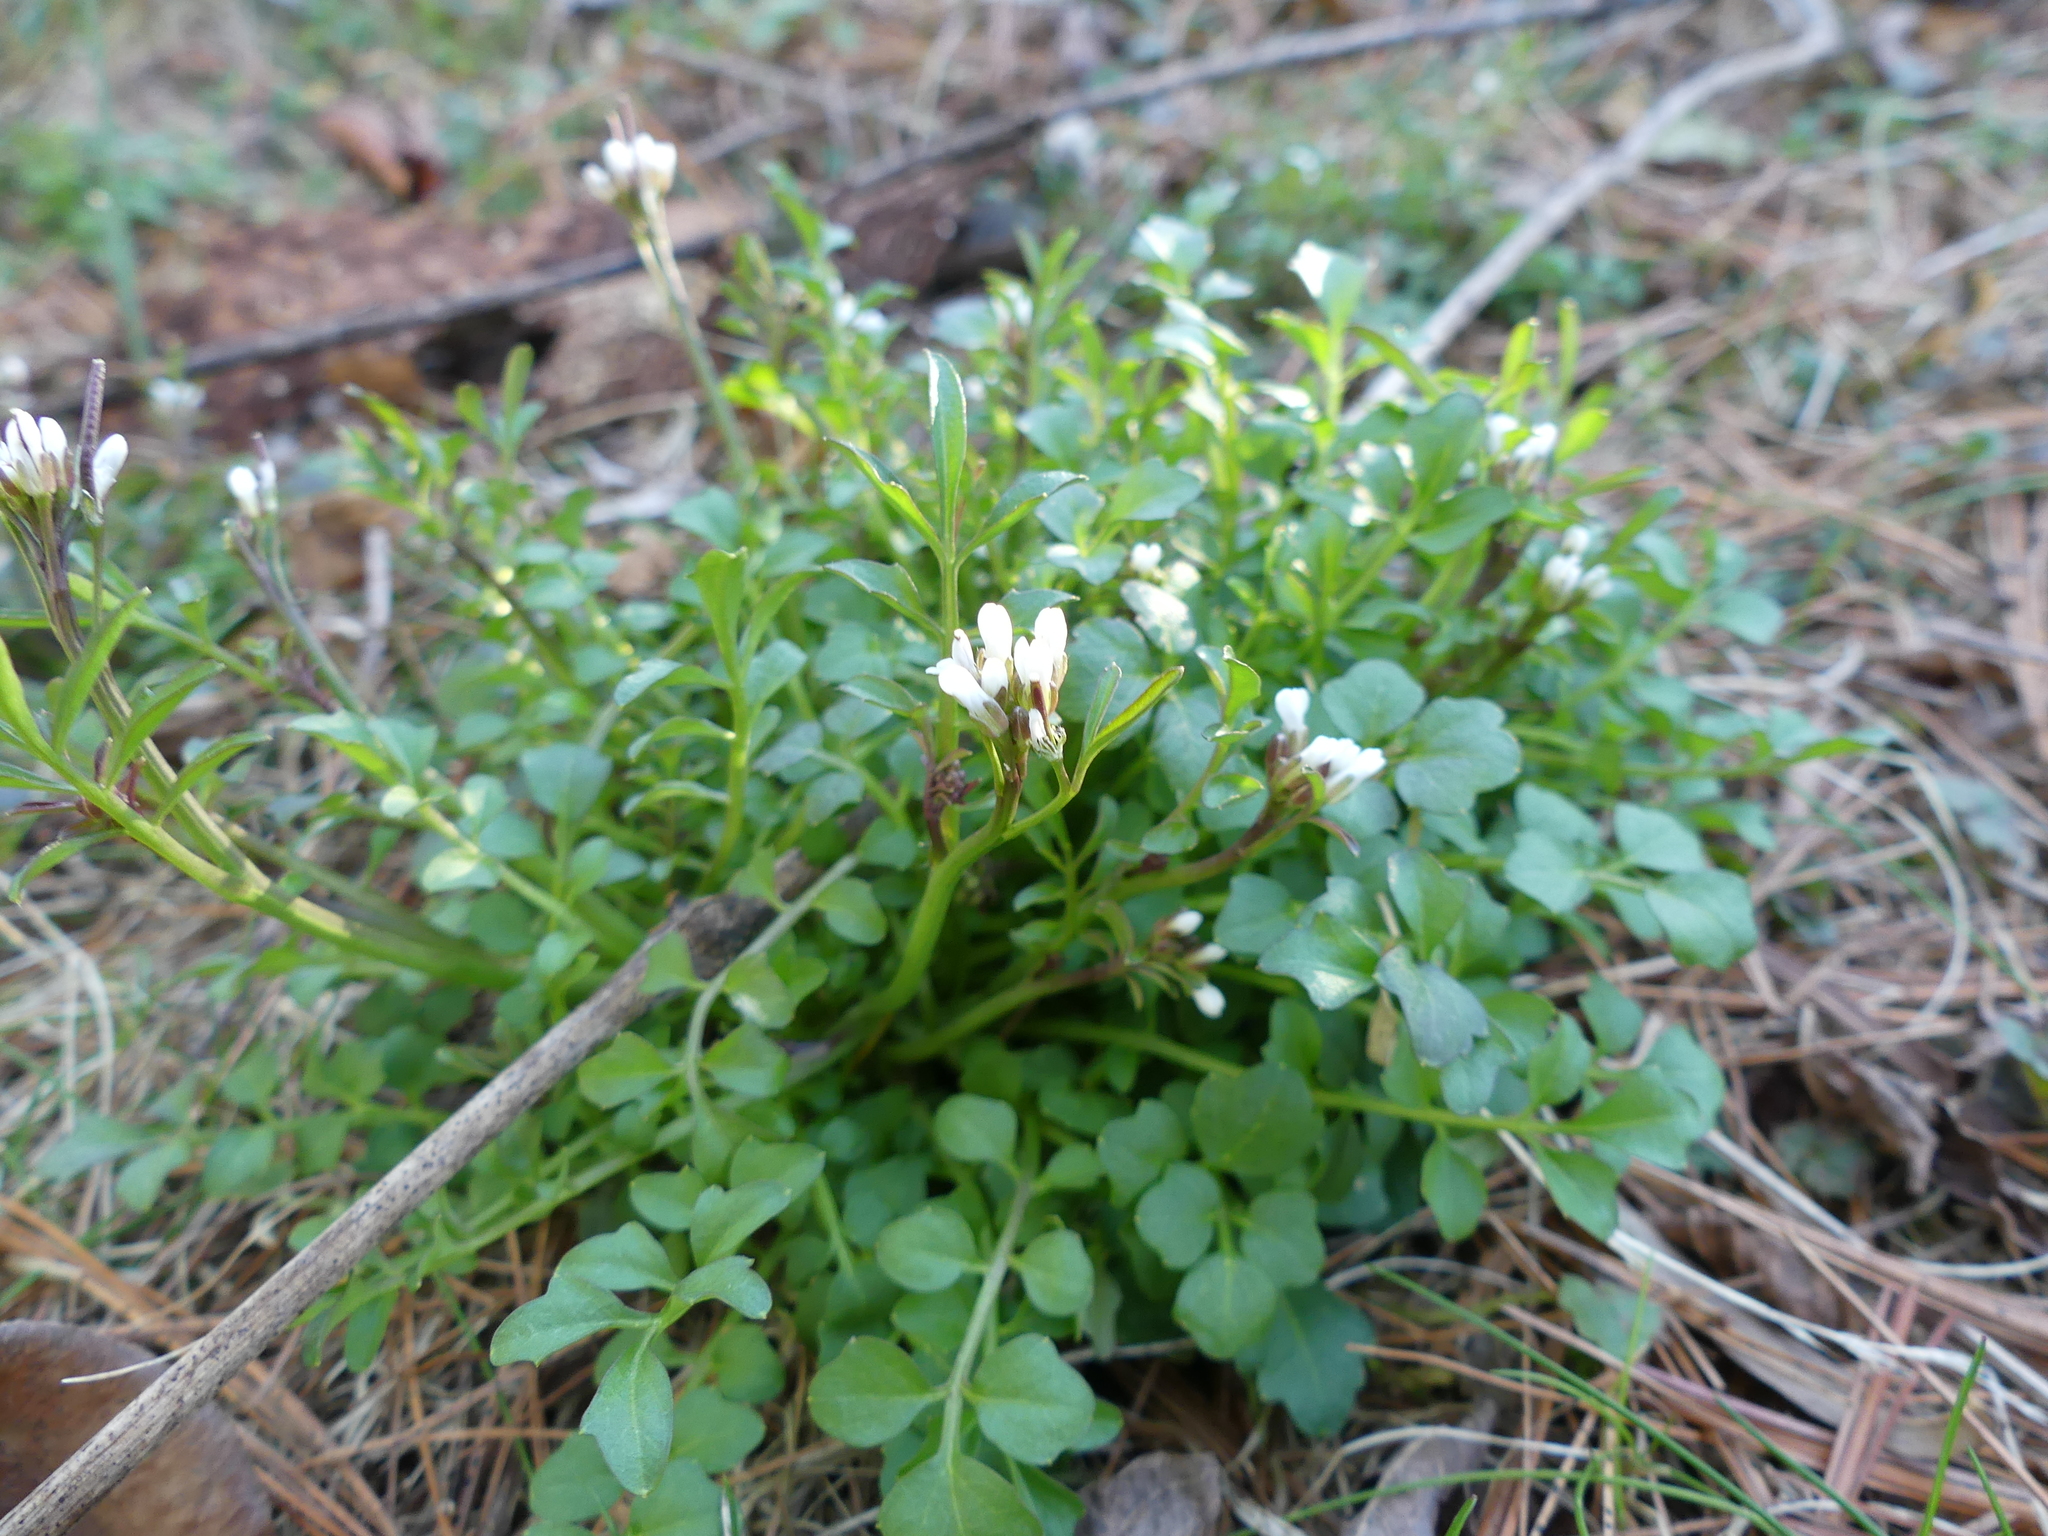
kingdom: Plantae
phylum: Tracheophyta
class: Magnoliopsida
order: Brassicales
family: Brassicaceae
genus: Cardamine
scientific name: Cardamine hirsuta
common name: Hairy bittercress
